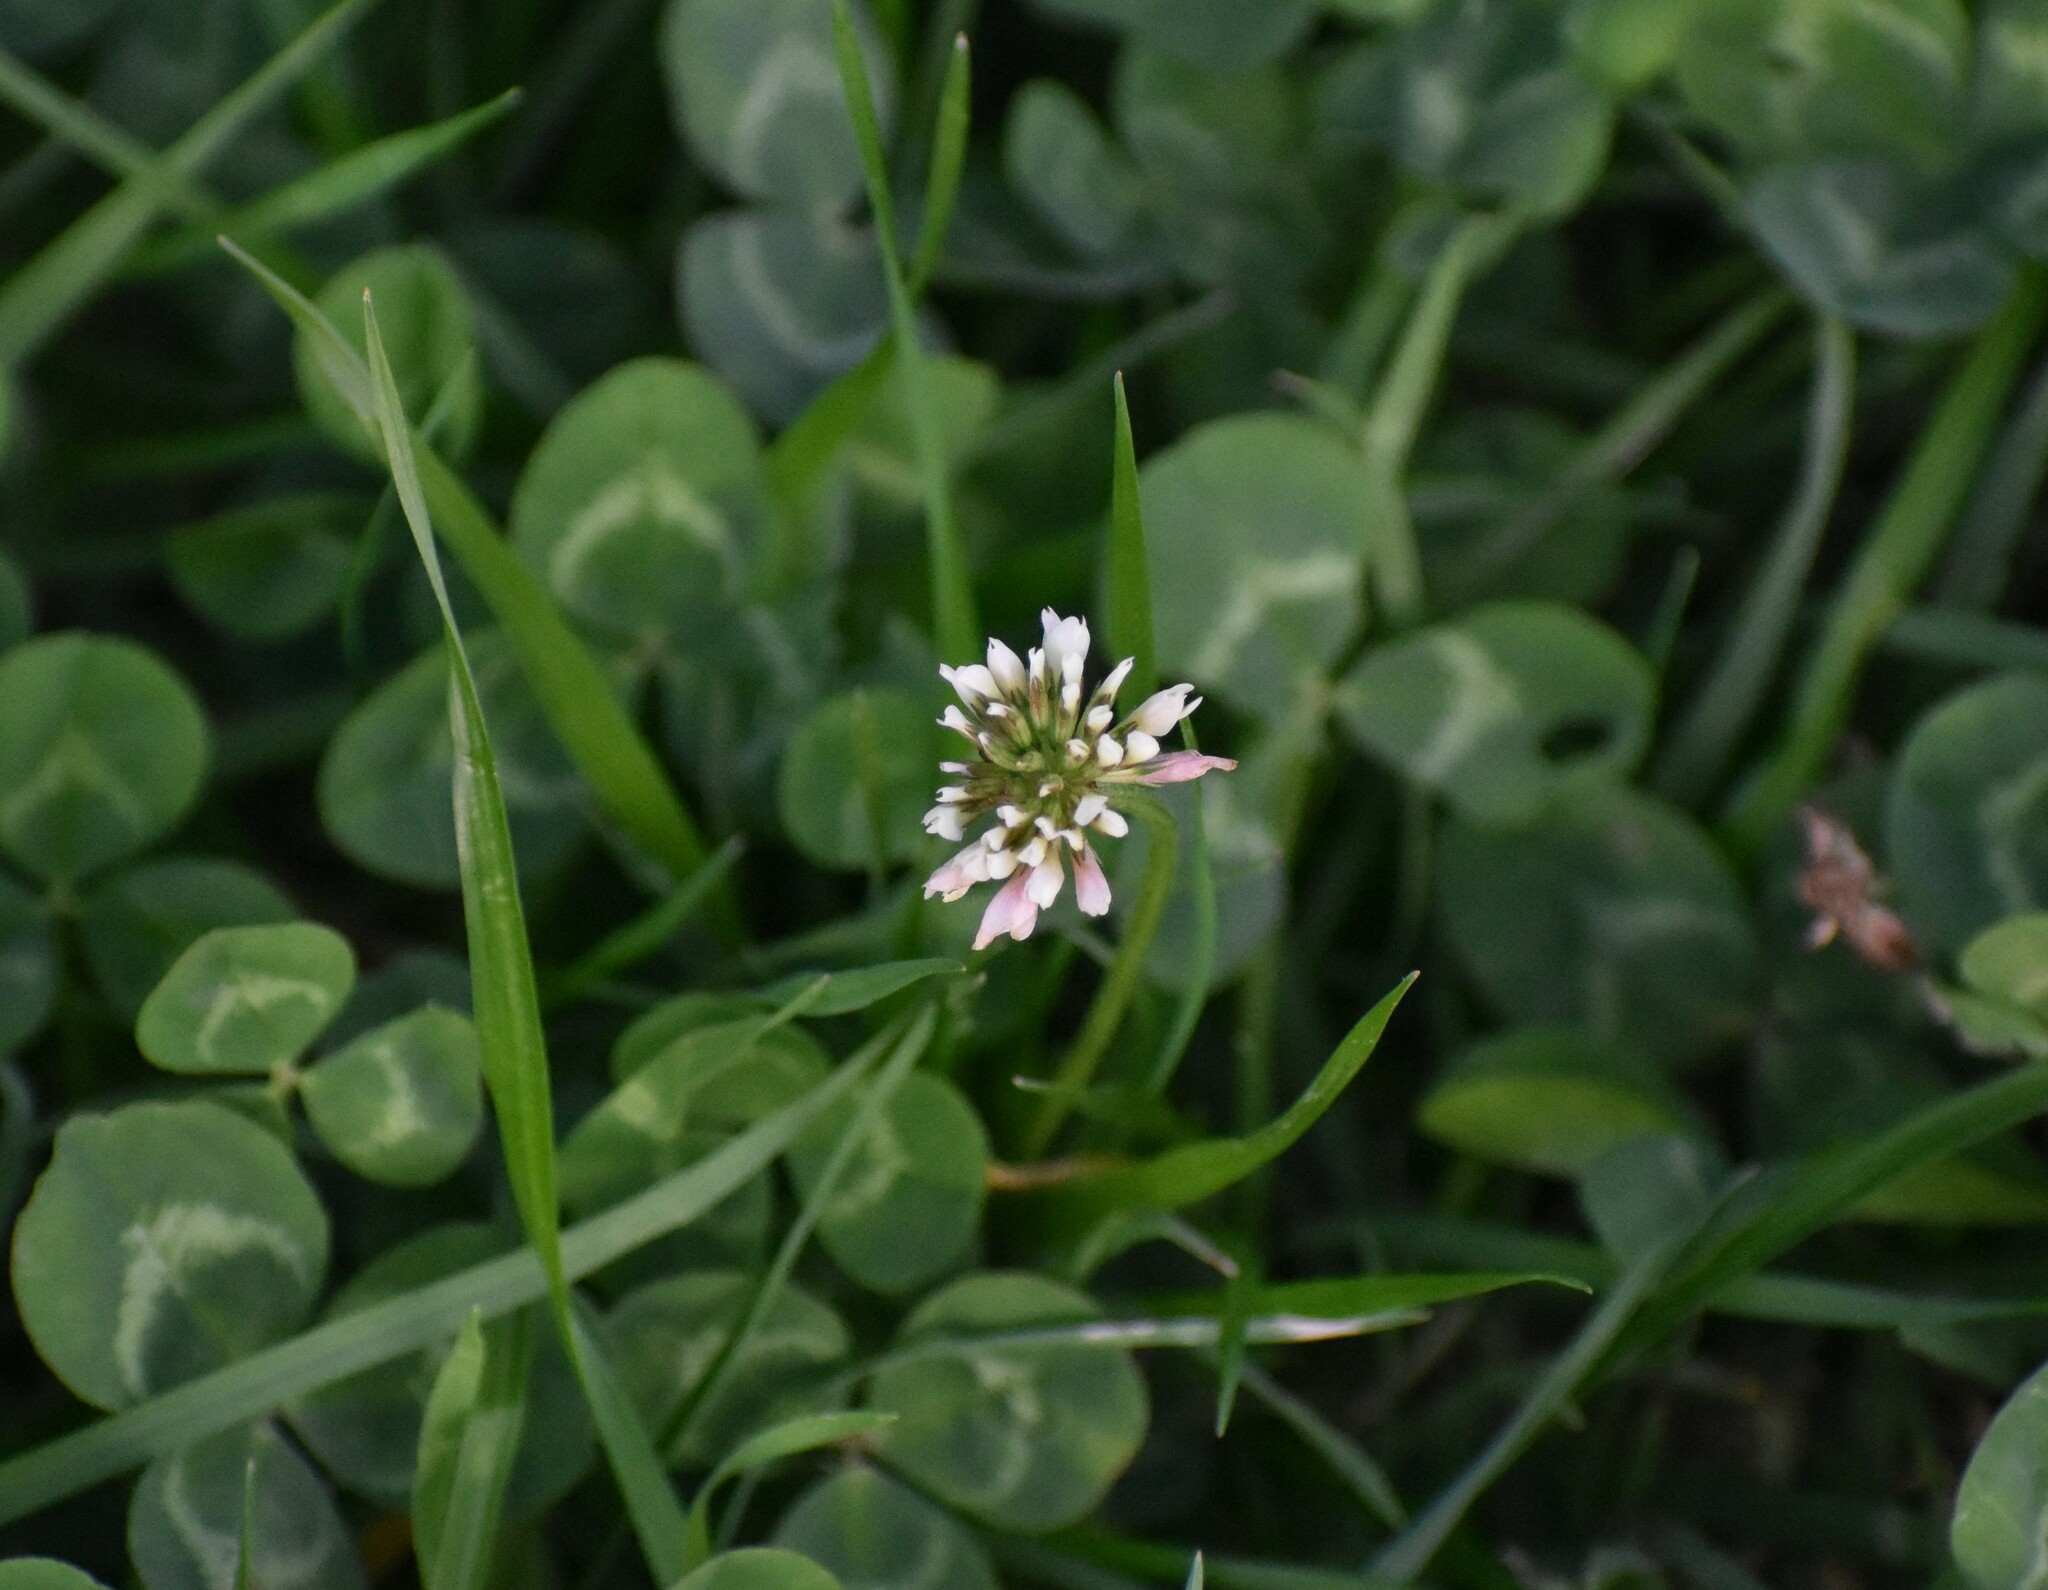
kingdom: Plantae
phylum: Tracheophyta
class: Magnoliopsida
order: Fabales
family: Fabaceae
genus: Trifolium
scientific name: Trifolium repens
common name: White clover
